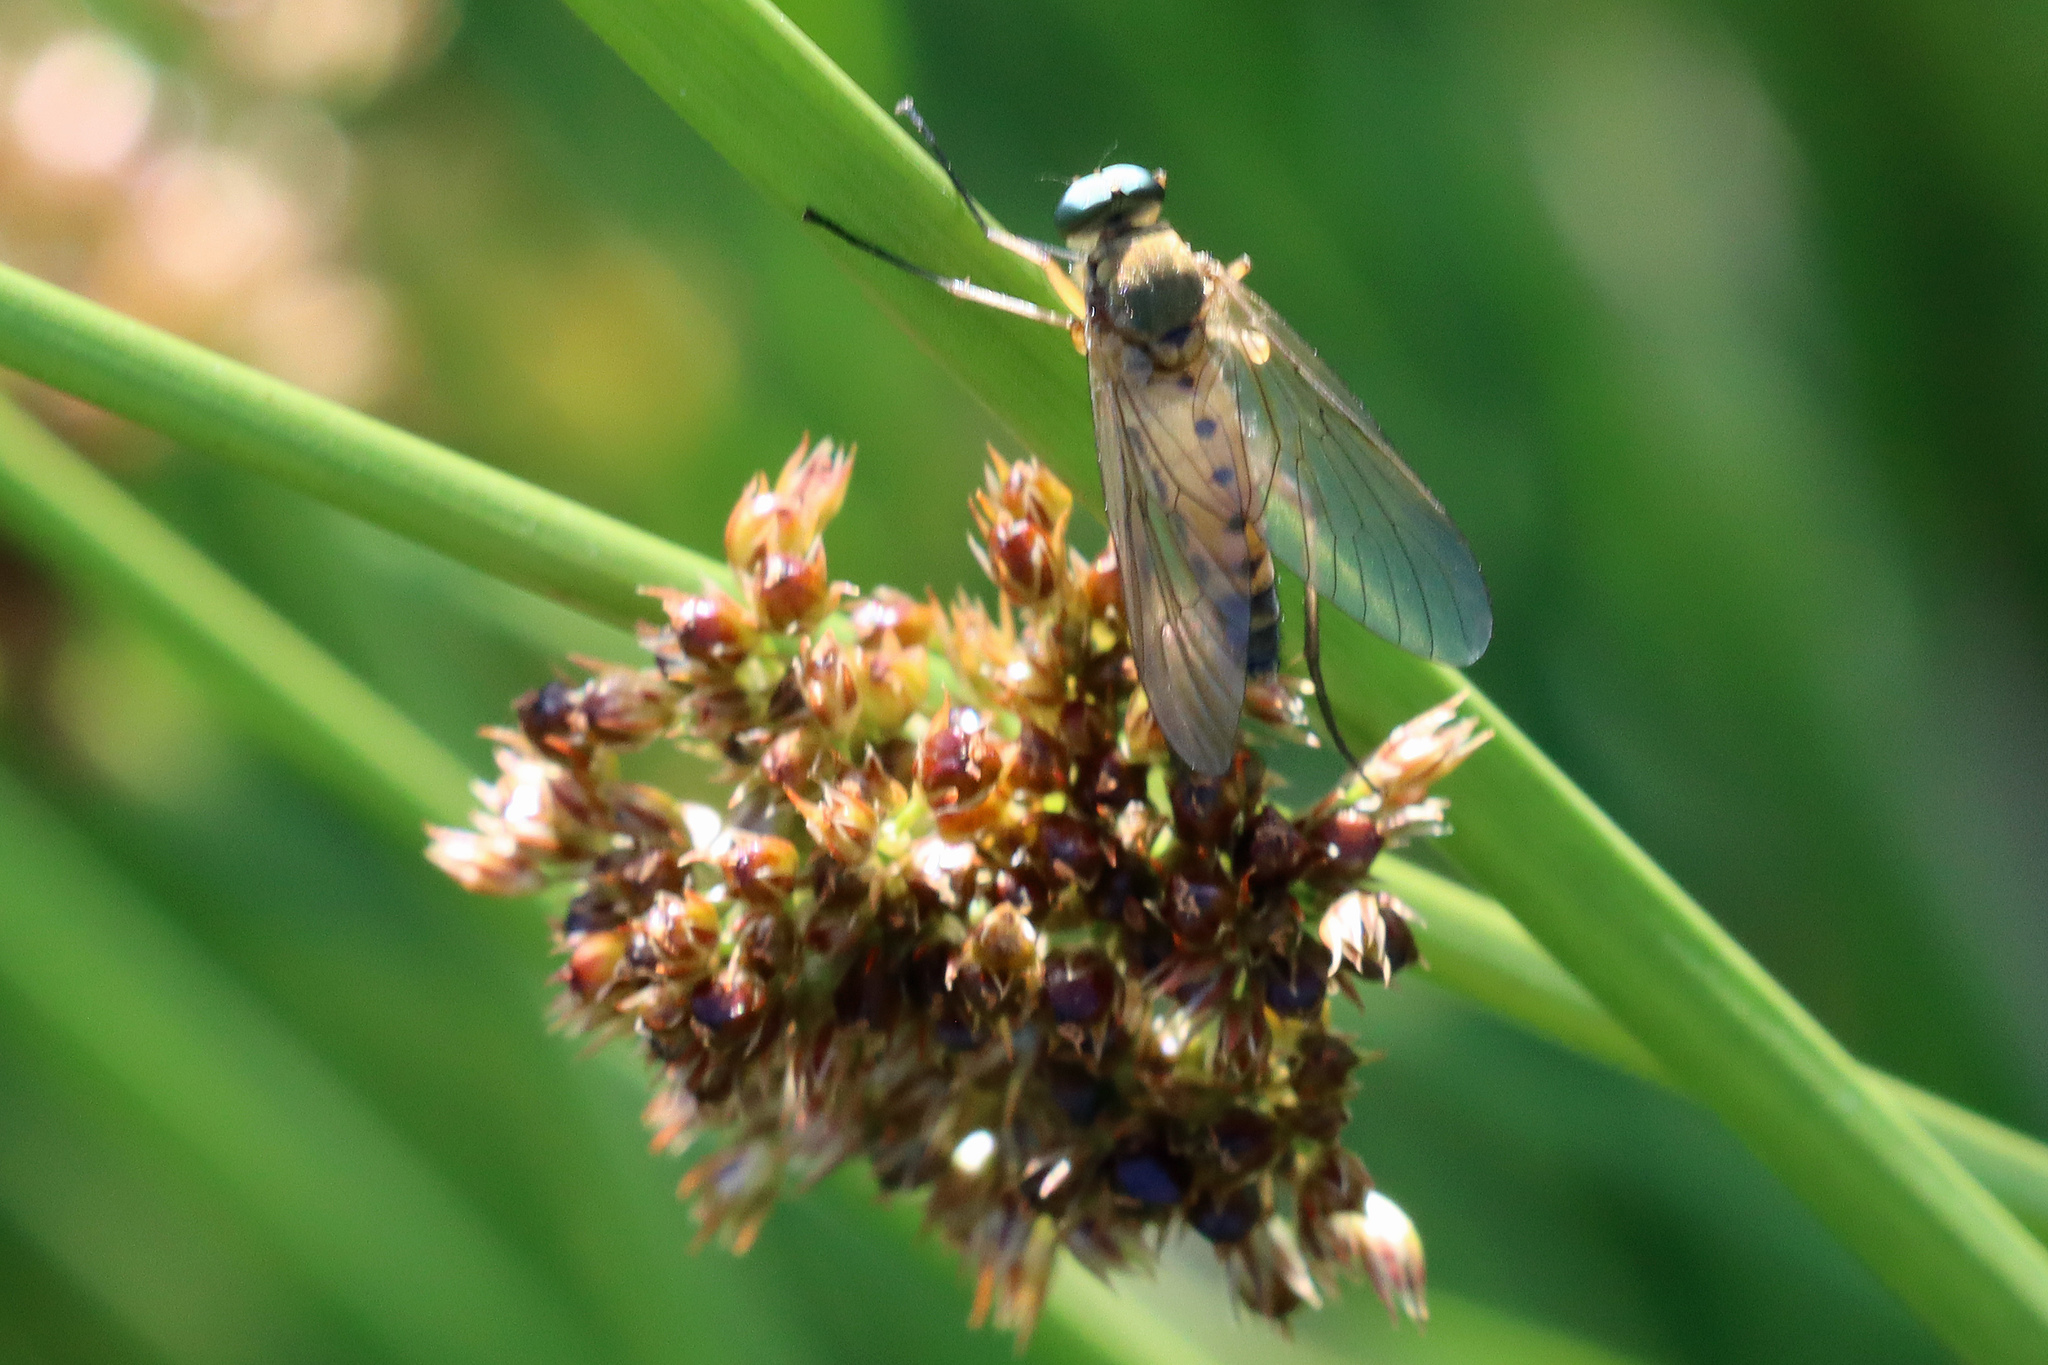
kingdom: Animalia
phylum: Arthropoda
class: Insecta
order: Diptera
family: Rhagionidae
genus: Rhagio
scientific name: Rhagio tringaria
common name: Marsh snipefly
